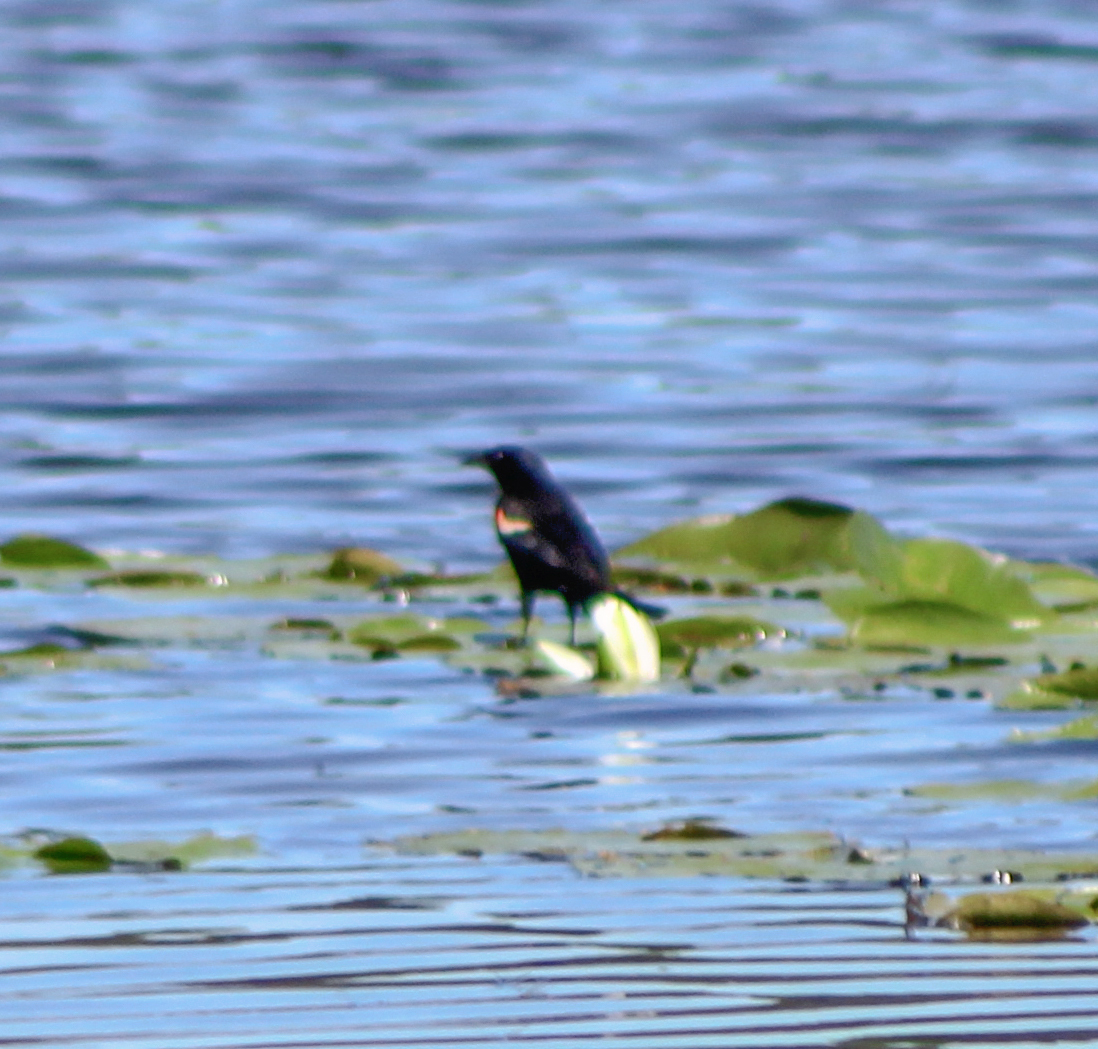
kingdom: Animalia
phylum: Chordata
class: Aves
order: Passeriformes
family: Icteridae
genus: Agelaius
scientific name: Agelaius phoeniceus
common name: Red-winged blackbird
